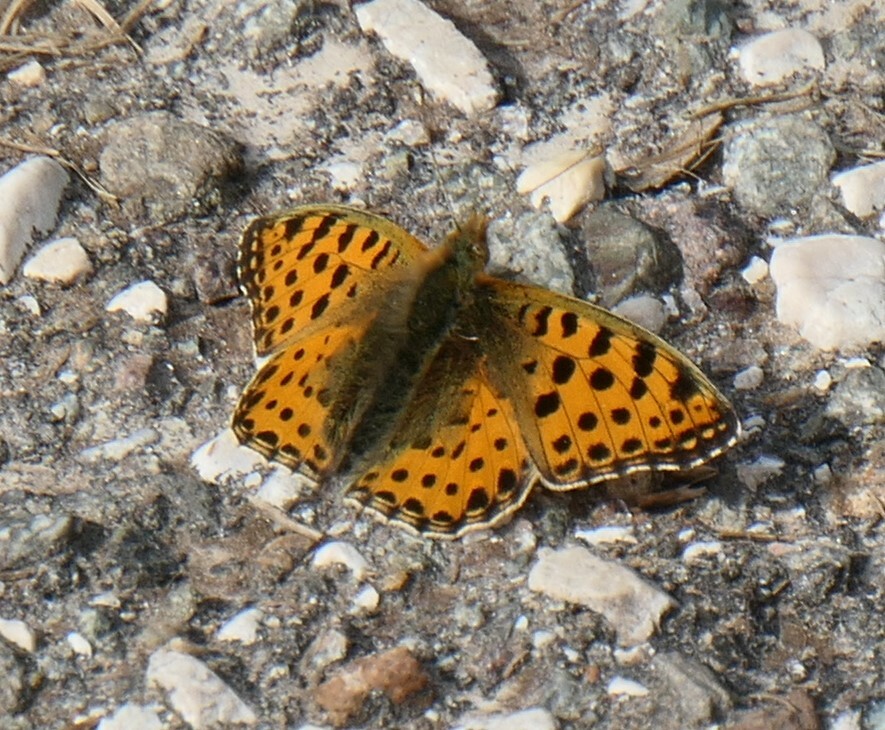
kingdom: Animalia
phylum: Arthropoda
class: Insecta
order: Lepidoptera
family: Nymphalidae
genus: Issoria
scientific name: Issoria lathonia
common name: Queen of spain fritillary
